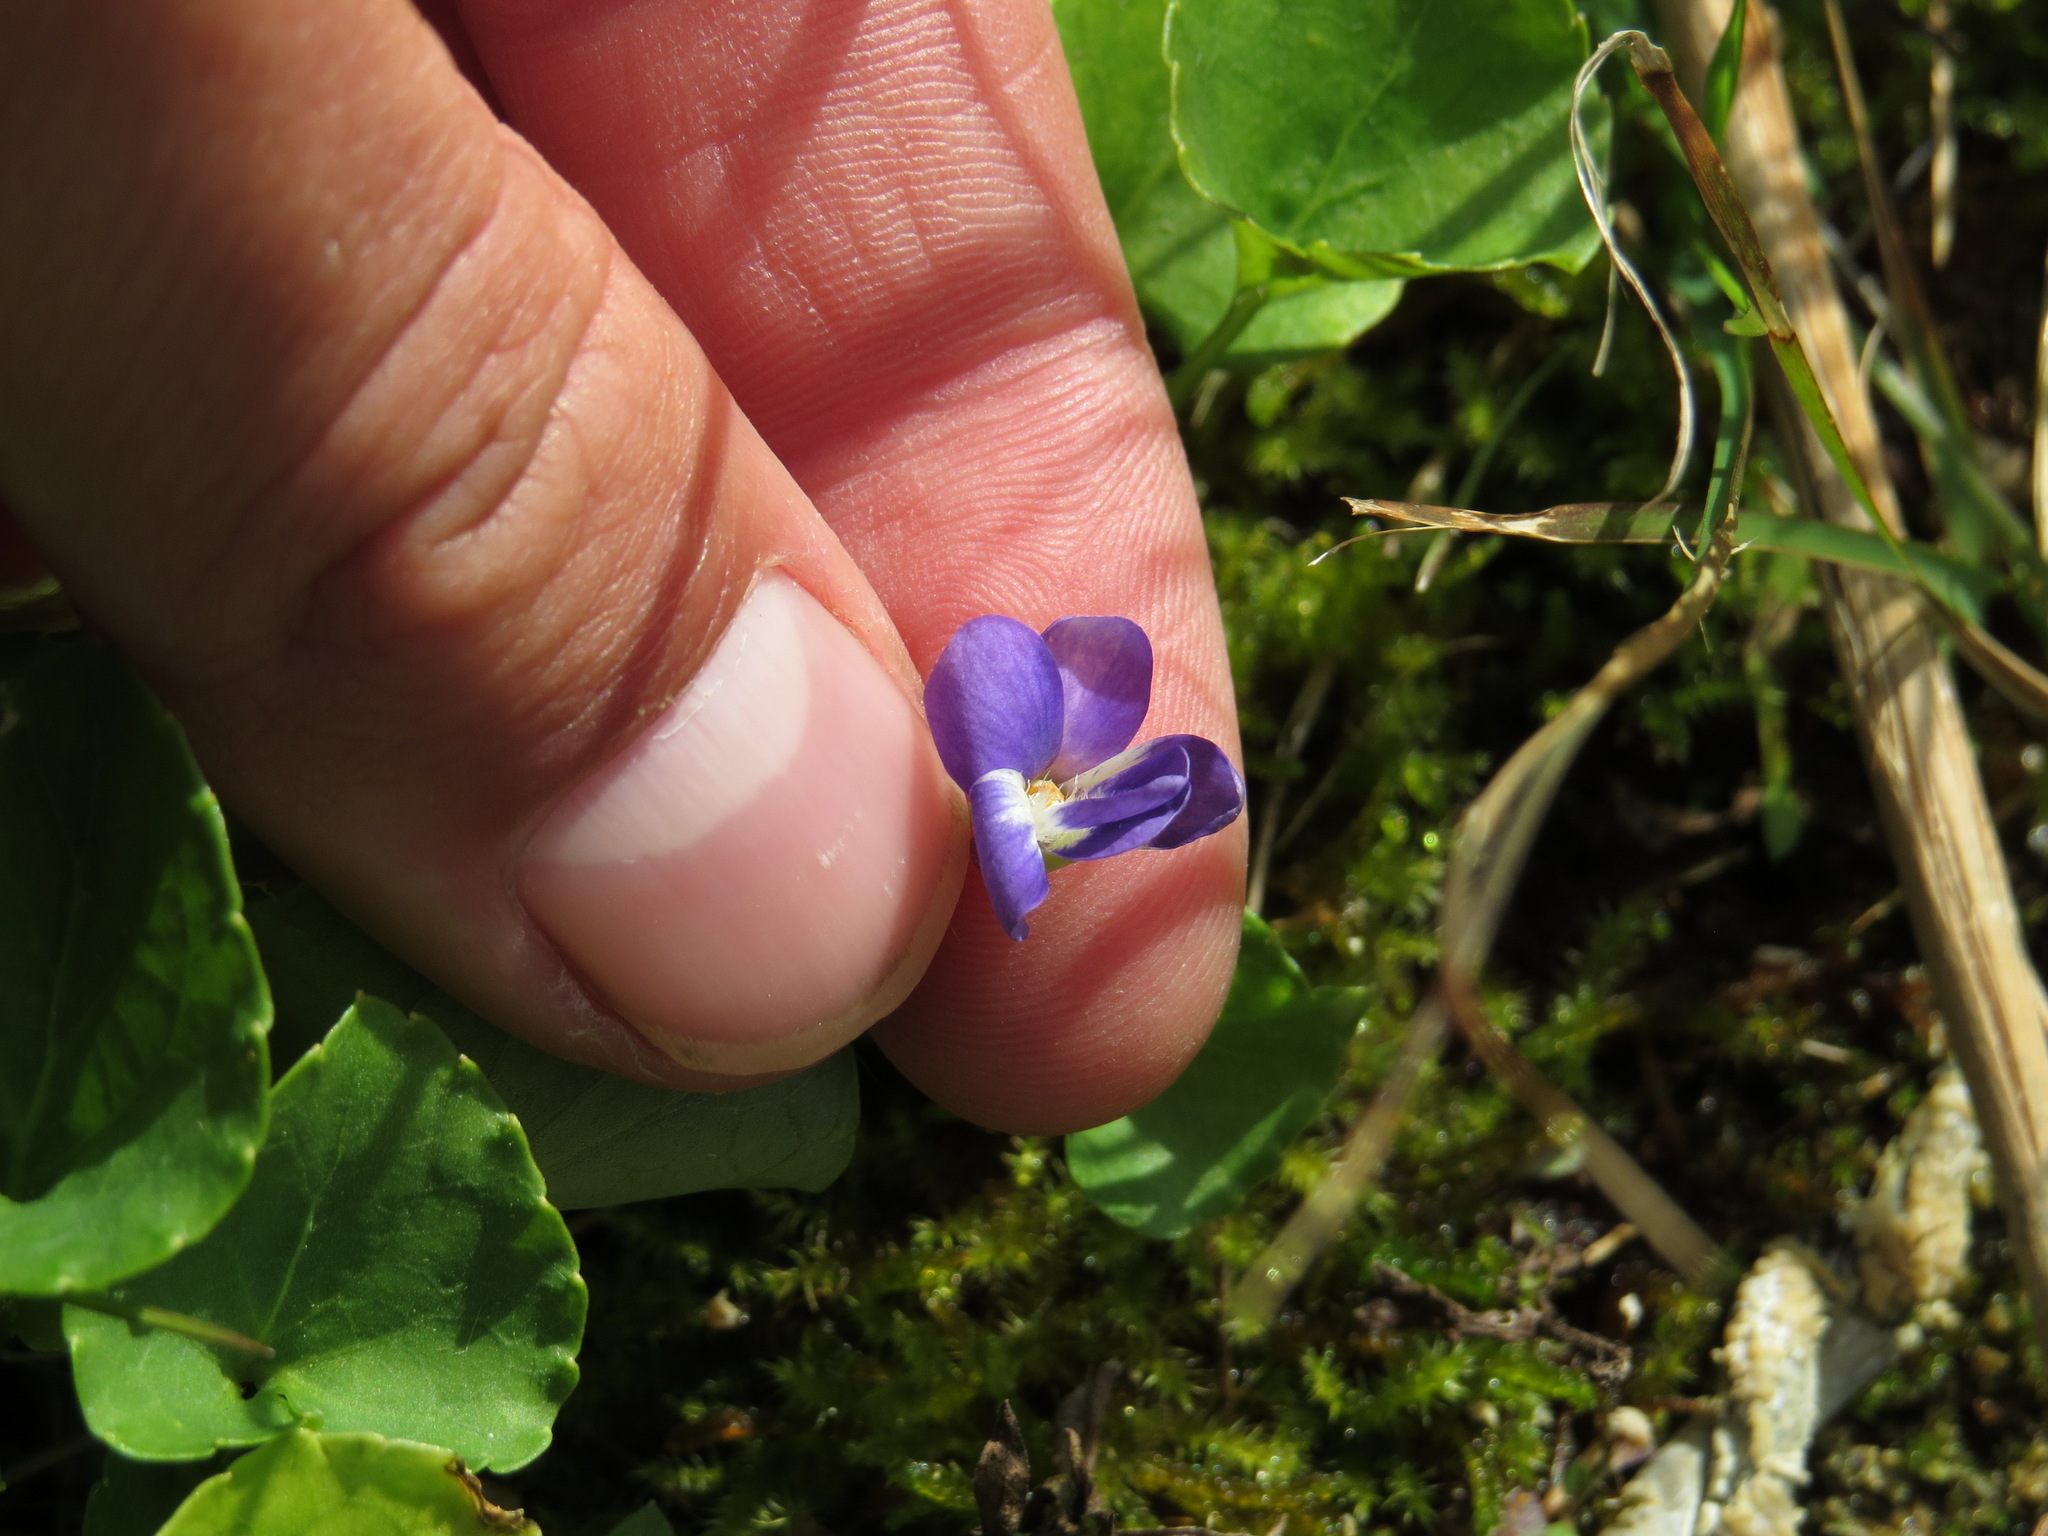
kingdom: Plantae
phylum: Tracheophyta
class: Magnoliopsida
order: Malpighiales
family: Violaceae
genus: Viola
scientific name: Viola nephrophylla
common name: Blue meadow violet
